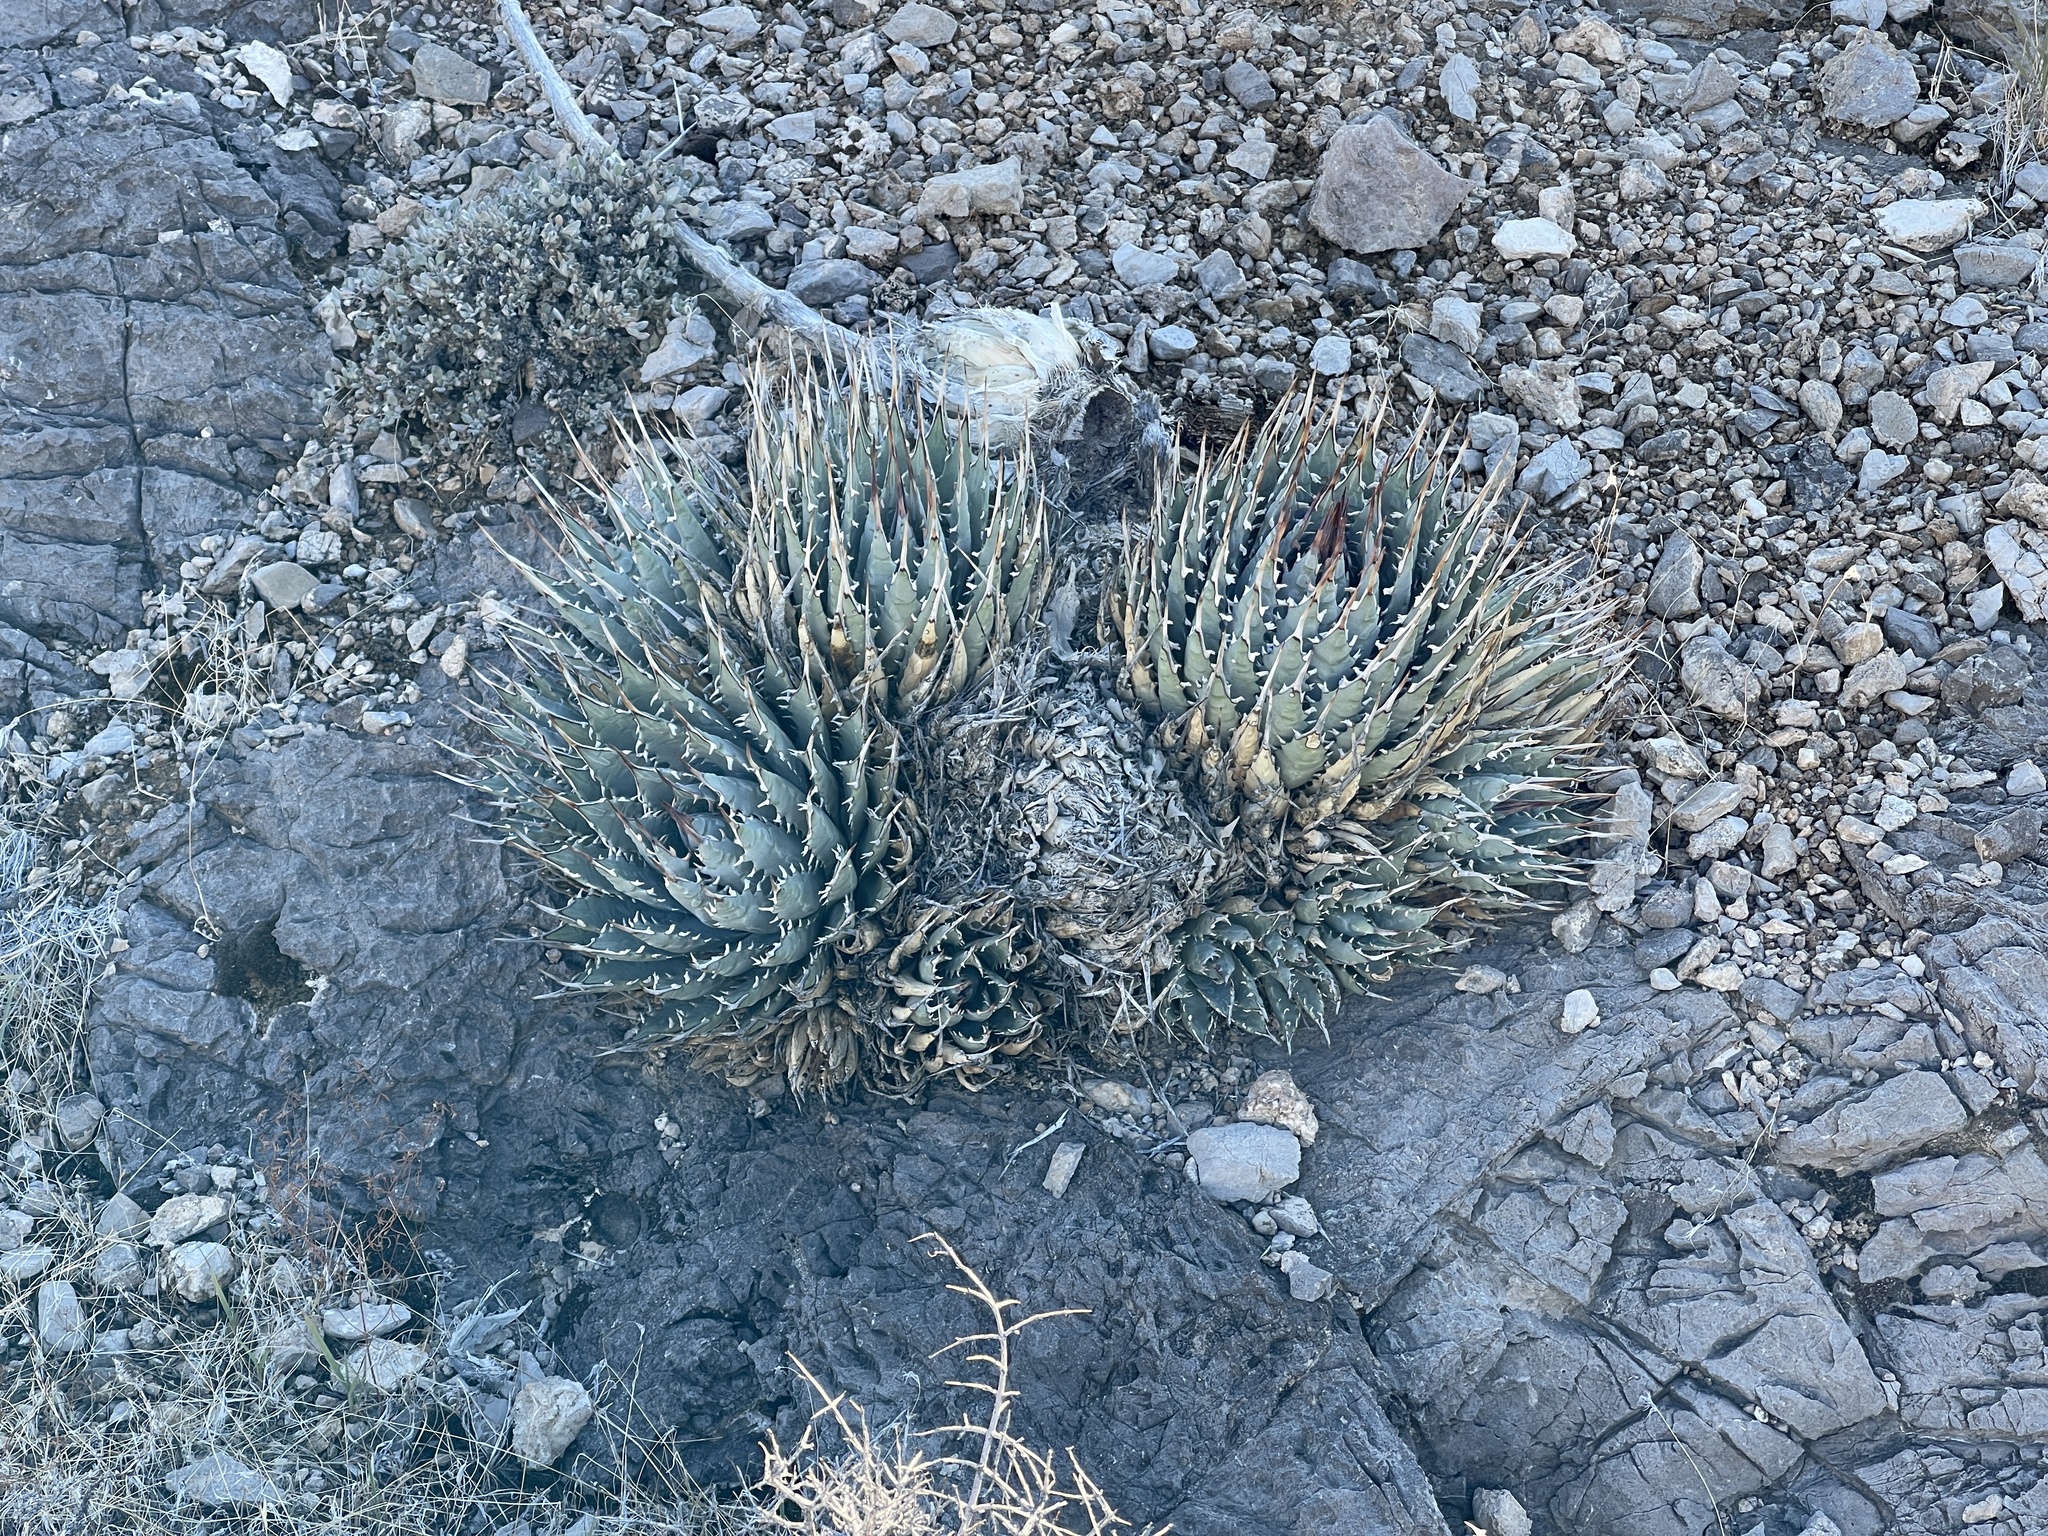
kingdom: Plantae
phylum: Tracheophyta
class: Liliopsida
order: Asparagales
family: Asparagaceae
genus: Agave
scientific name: Agave utahensis
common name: Utah agave
